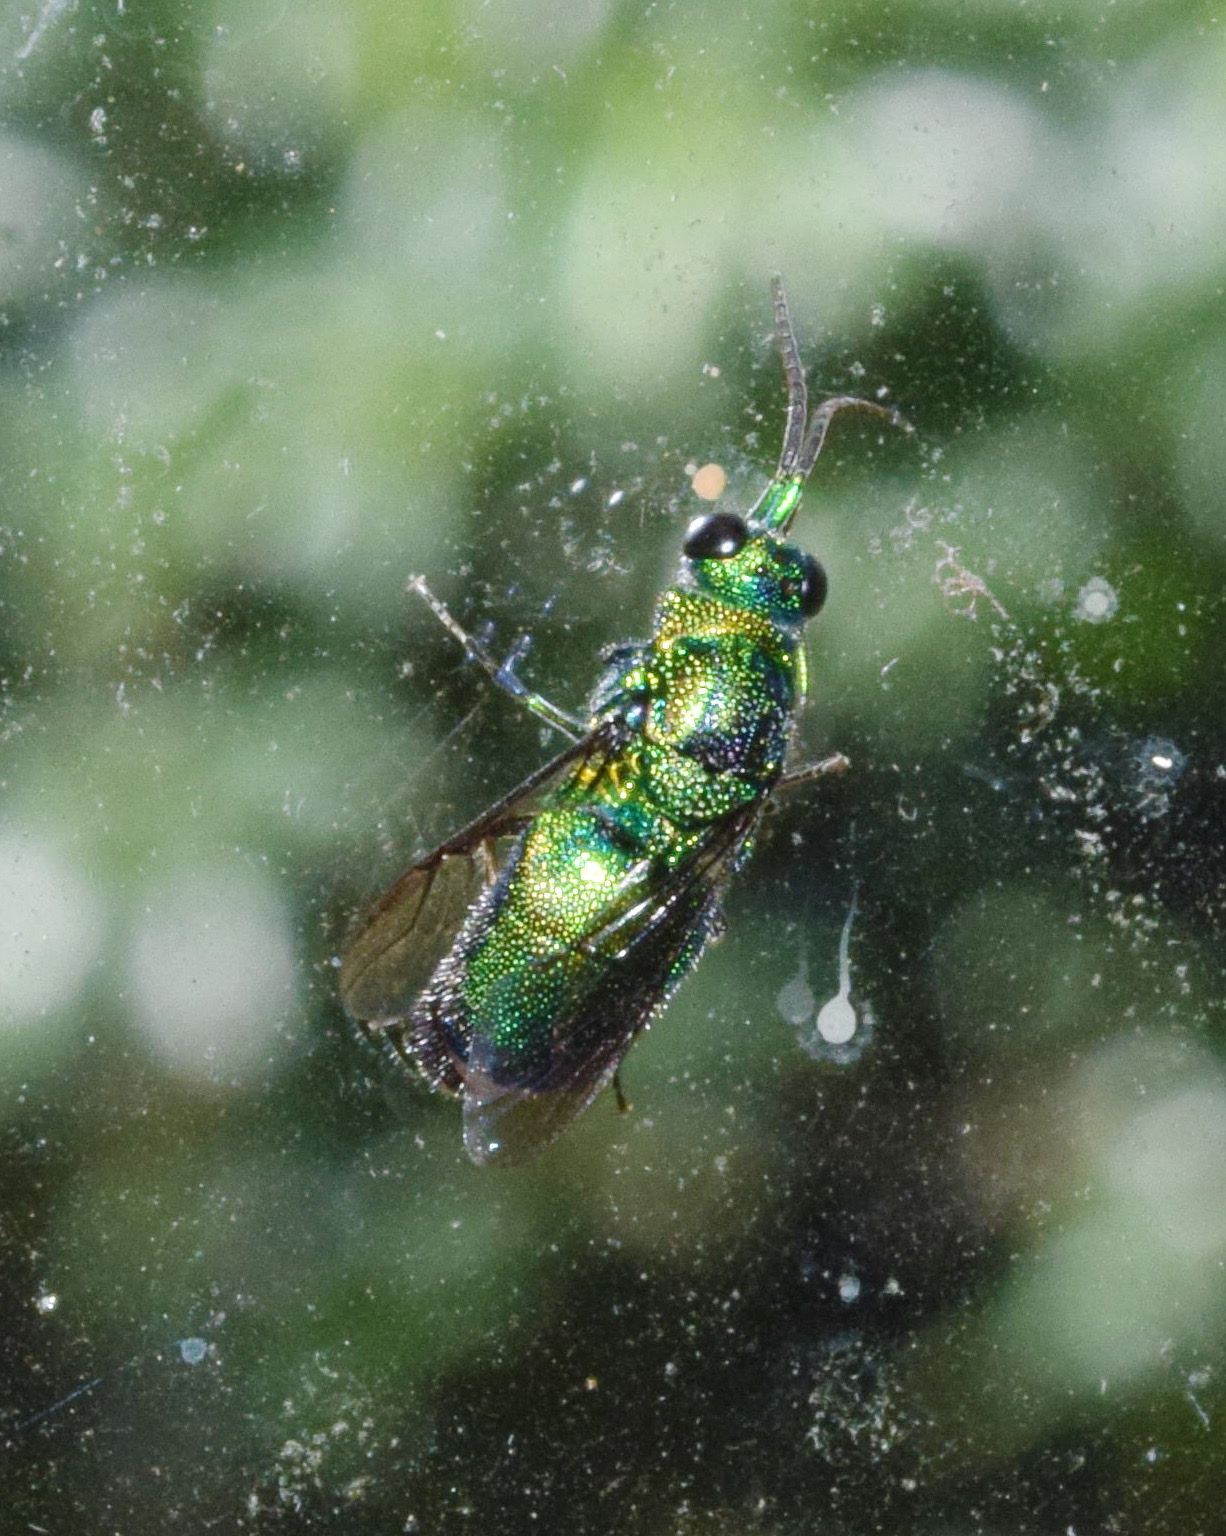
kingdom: Animalia
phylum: Arthropoda
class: Insecta
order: Hymenoptera
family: Chrysididae
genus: Chrysis
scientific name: Chrysis lincea
